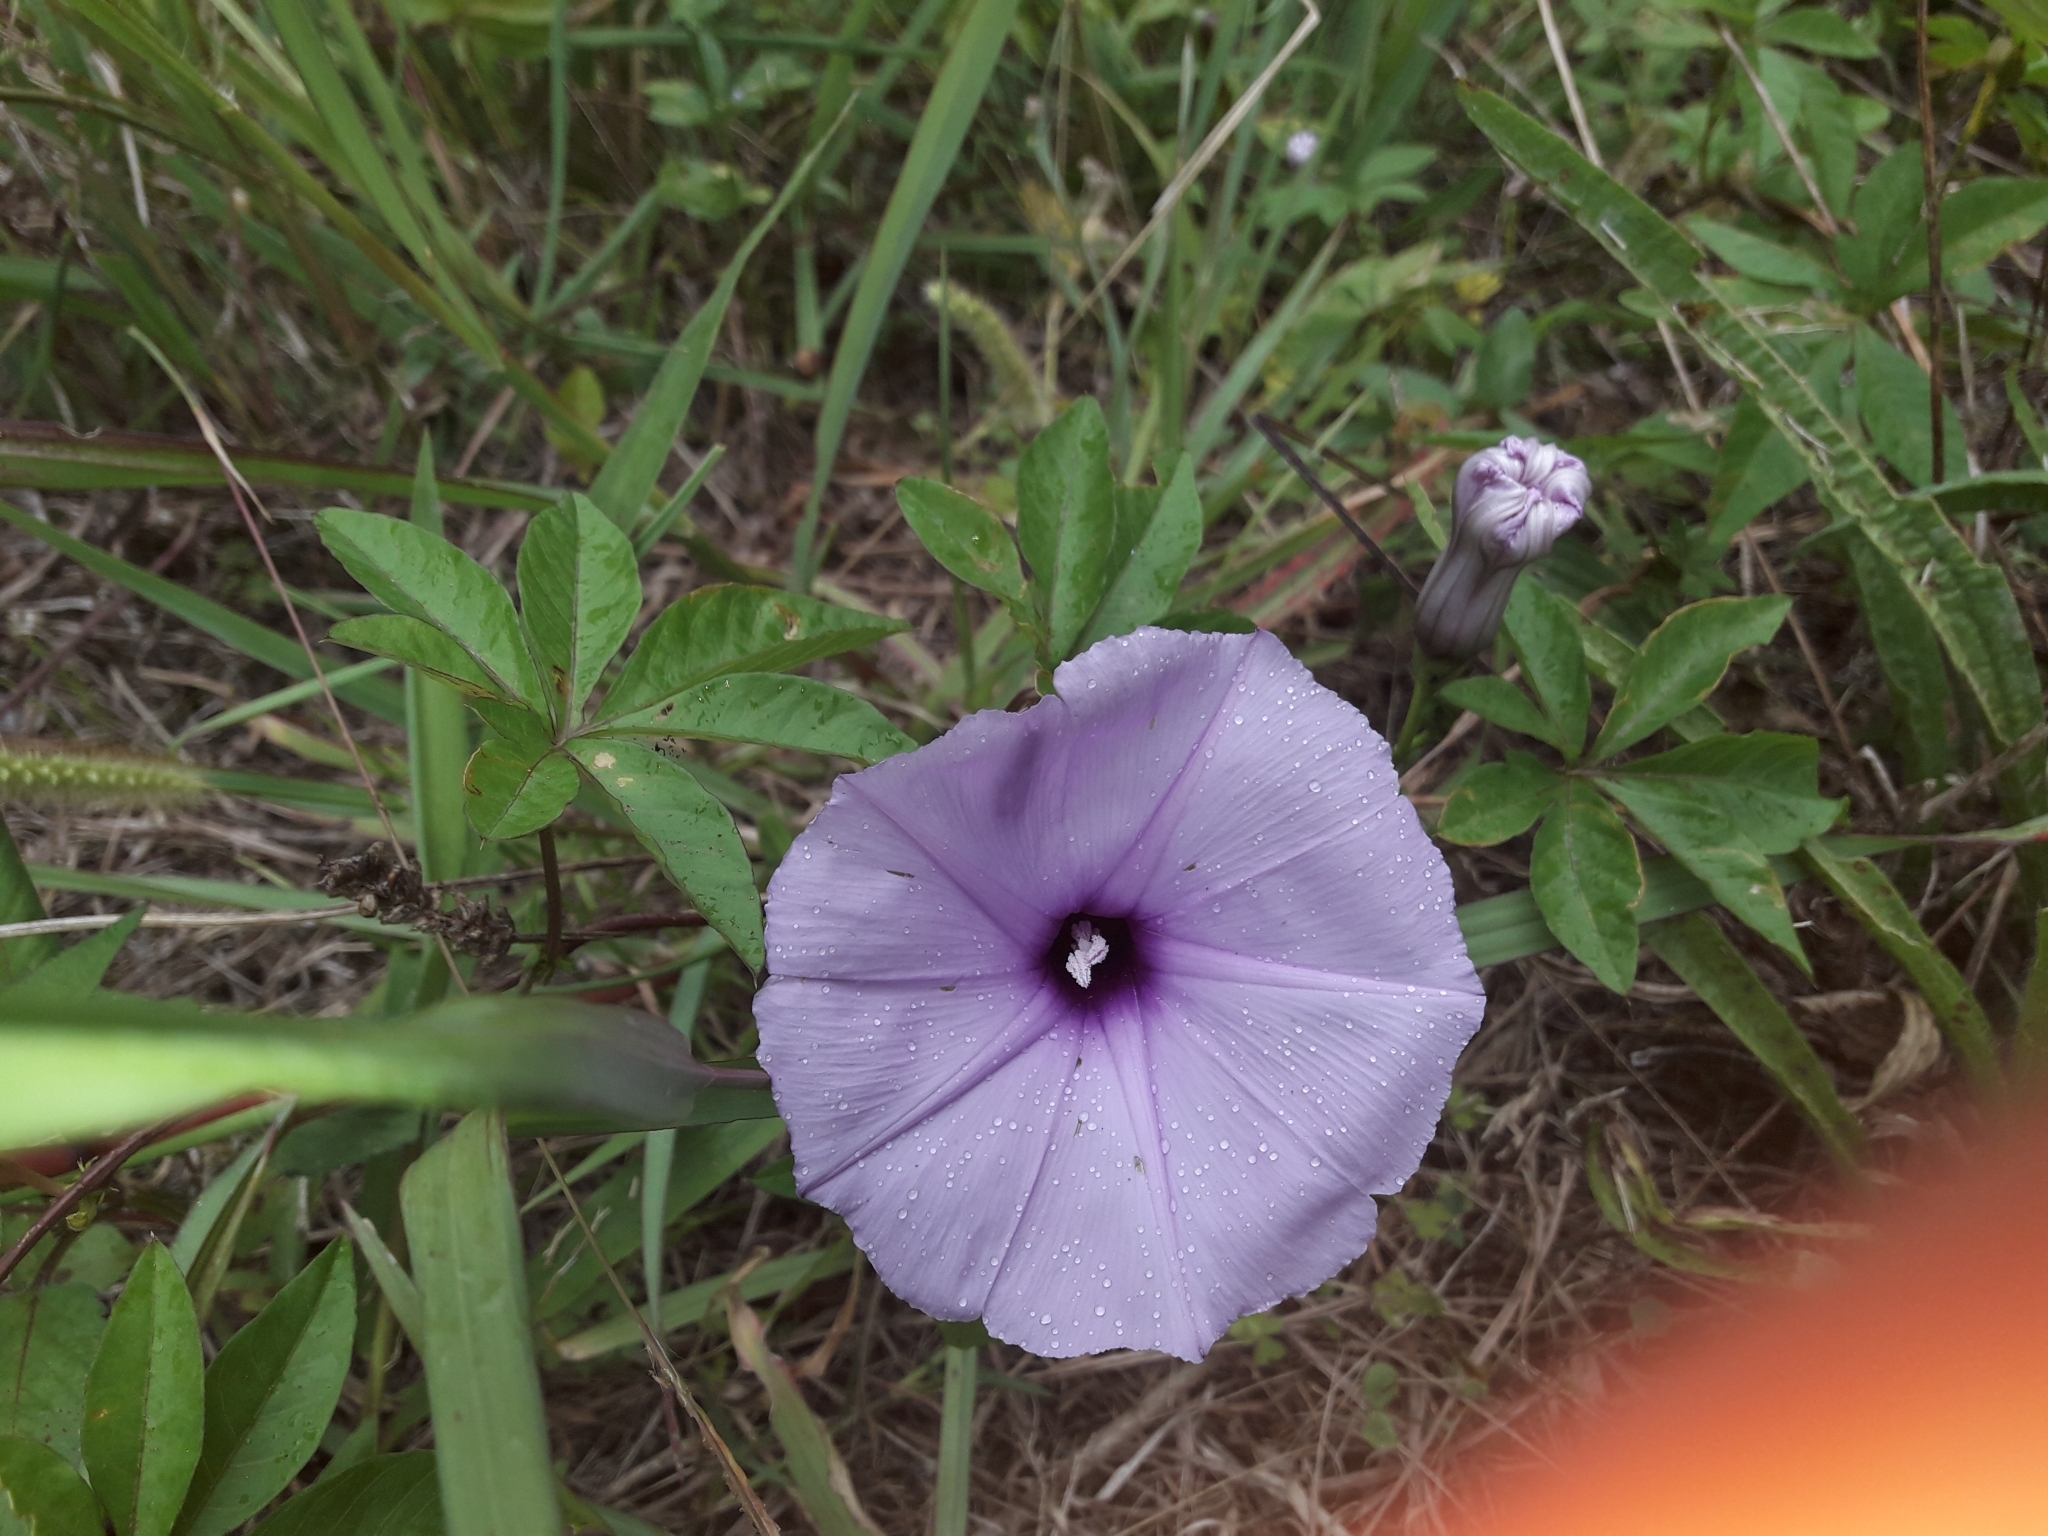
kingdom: Plantae
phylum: Tracheophyta
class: Magnoliopsida
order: Solanales
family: Convolvulaceae
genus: Ipomoea
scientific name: Ipomoea cairica
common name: Mile a minute vine
